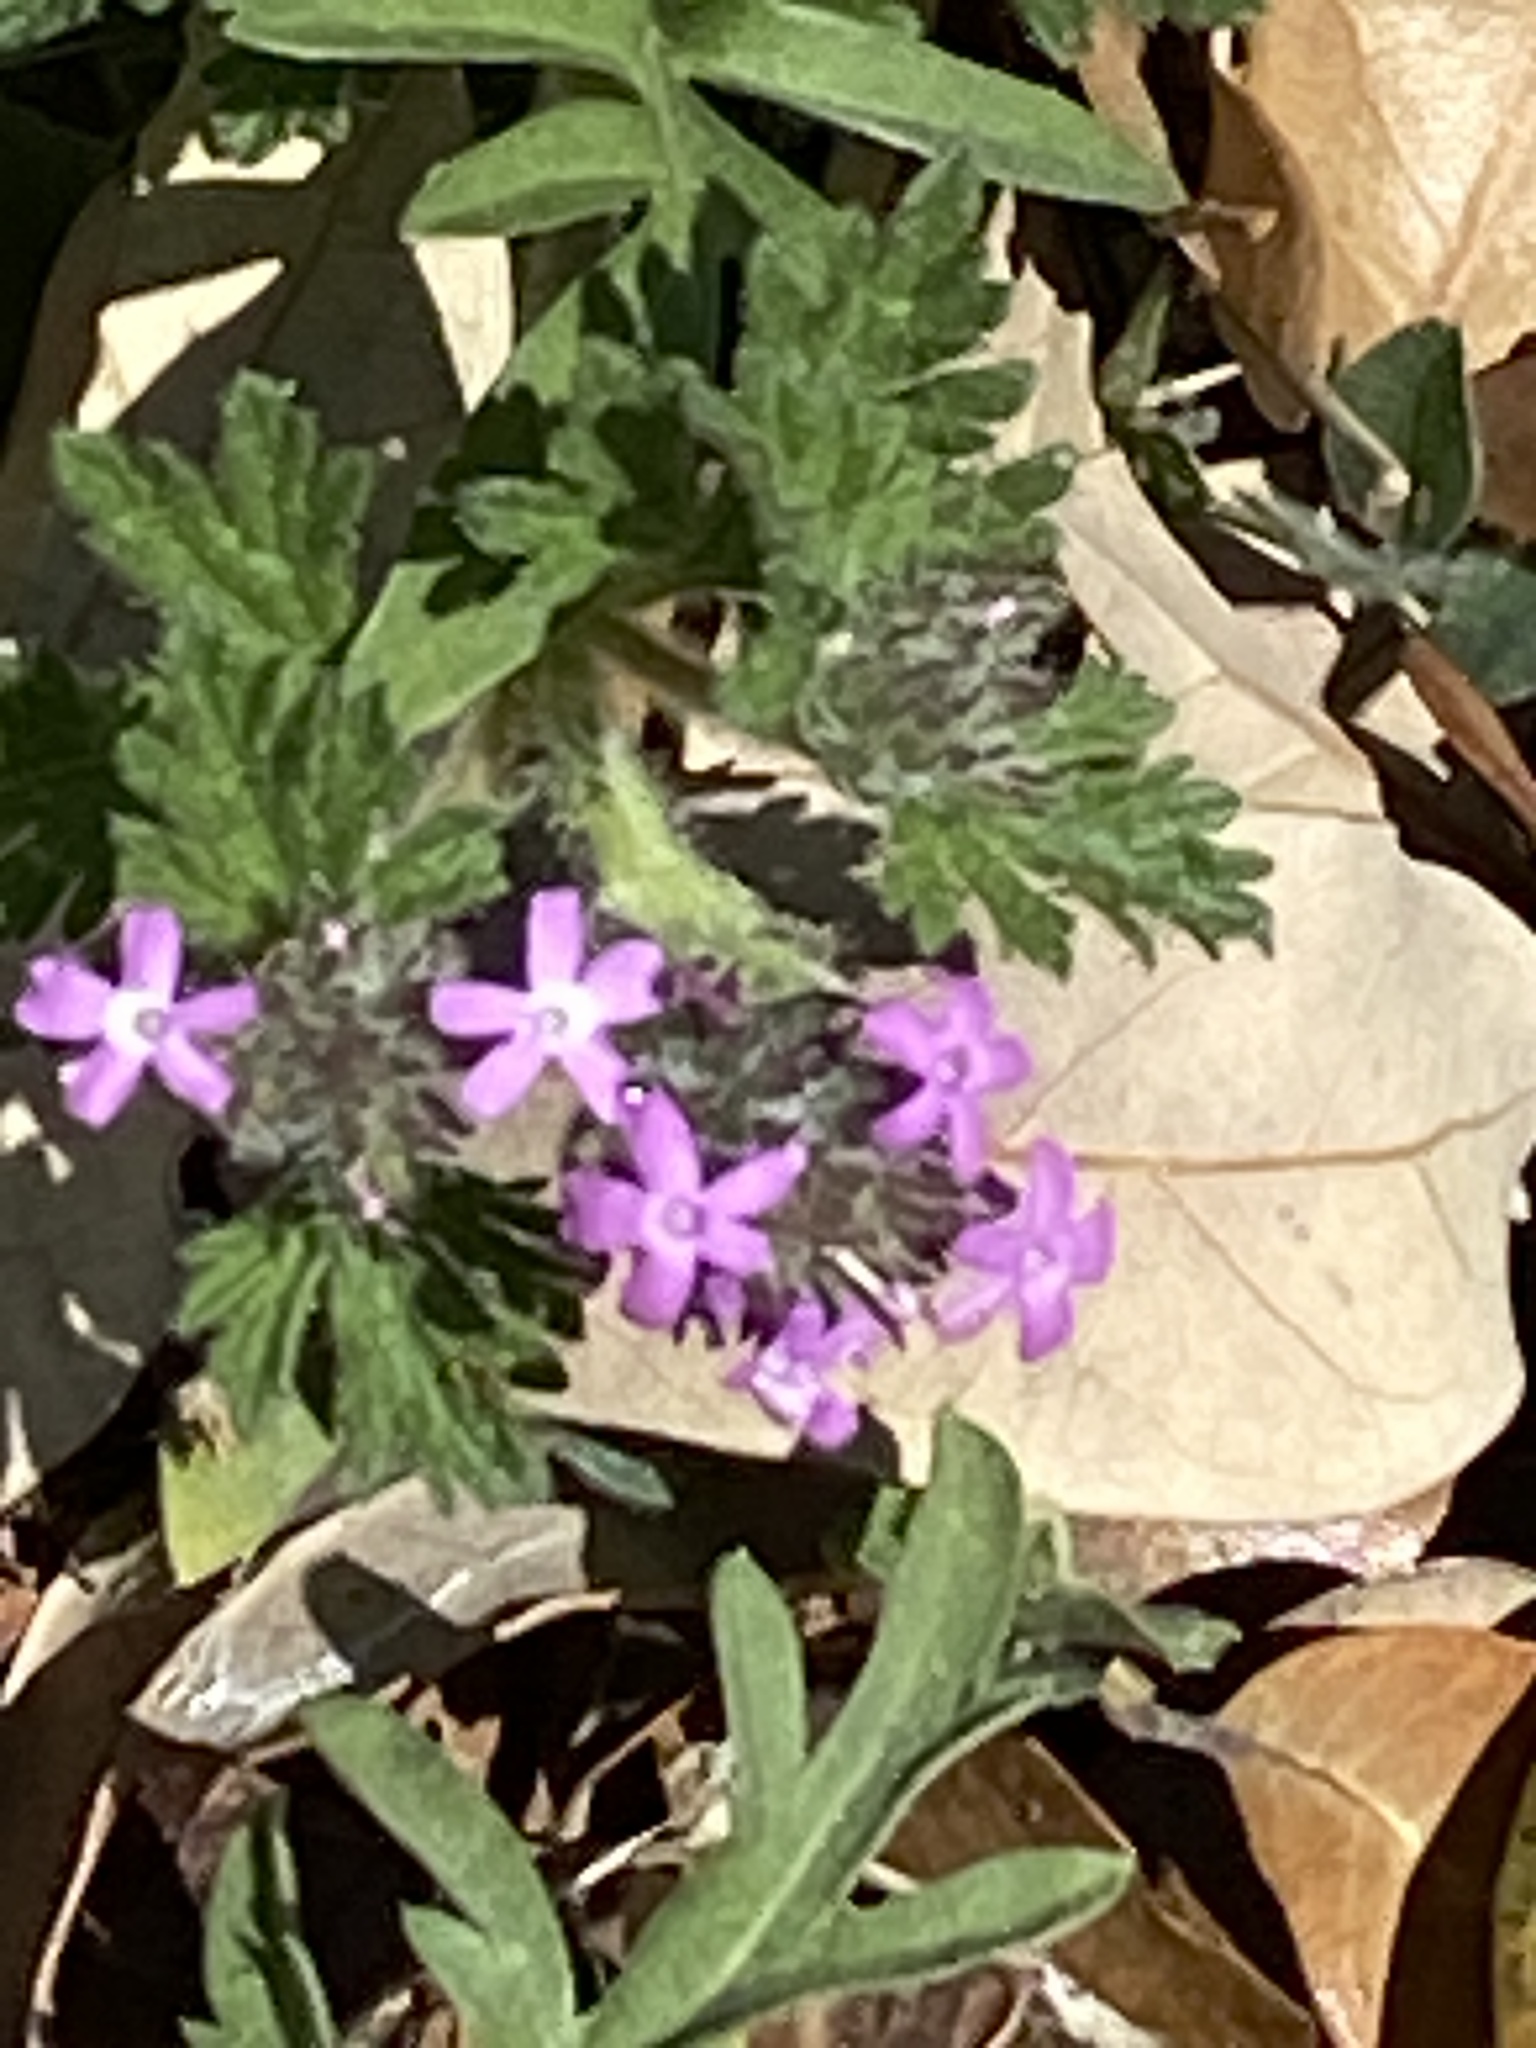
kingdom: Plantae
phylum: Tracheophyta
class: Magnoliopsida
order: Lamiales
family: Verbenaceae
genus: Verbena
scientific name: Verbena pumila
